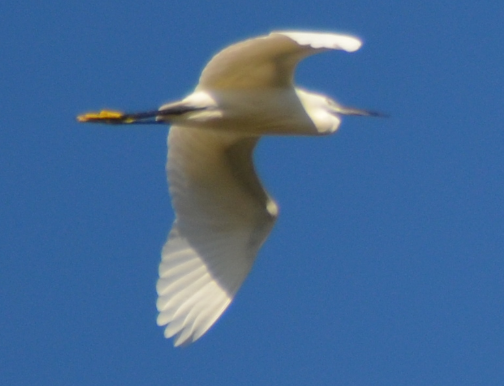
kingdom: Animalia
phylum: Chordata
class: Aves
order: Pelecaniformes
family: Ardeidae
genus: Egretta
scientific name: Egretta garzetta
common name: Little egret
